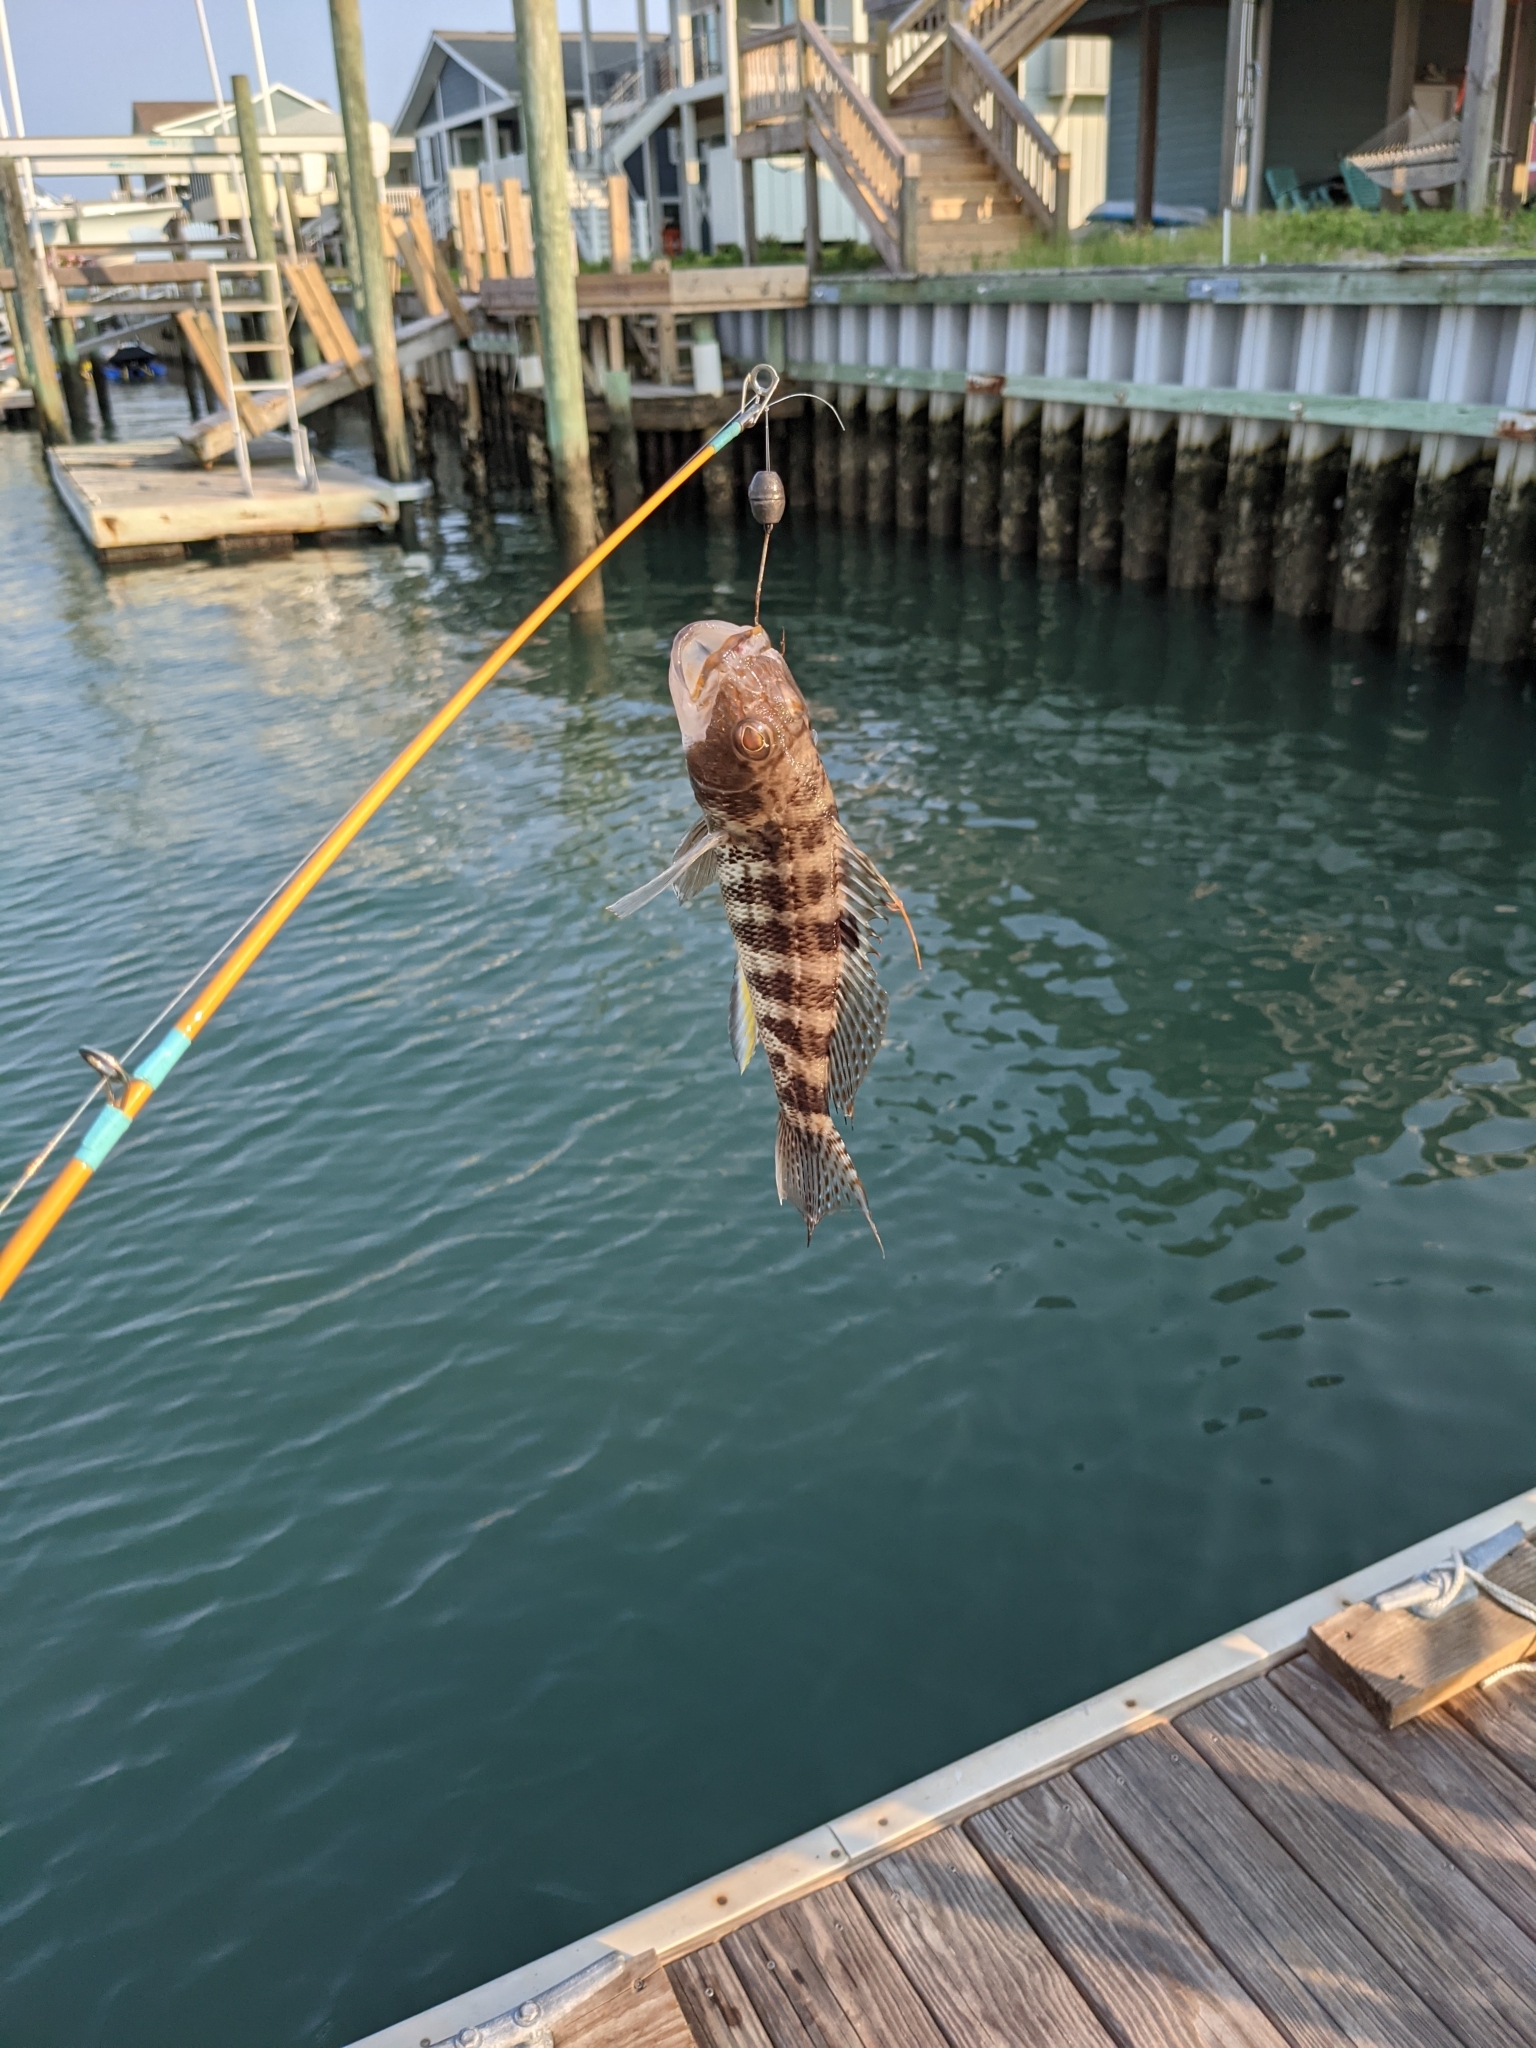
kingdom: Animalia
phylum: Chordata
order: Perciformes
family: Serranidae
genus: Centropristis
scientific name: Centropristis philadelphica
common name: Rock sea bass
